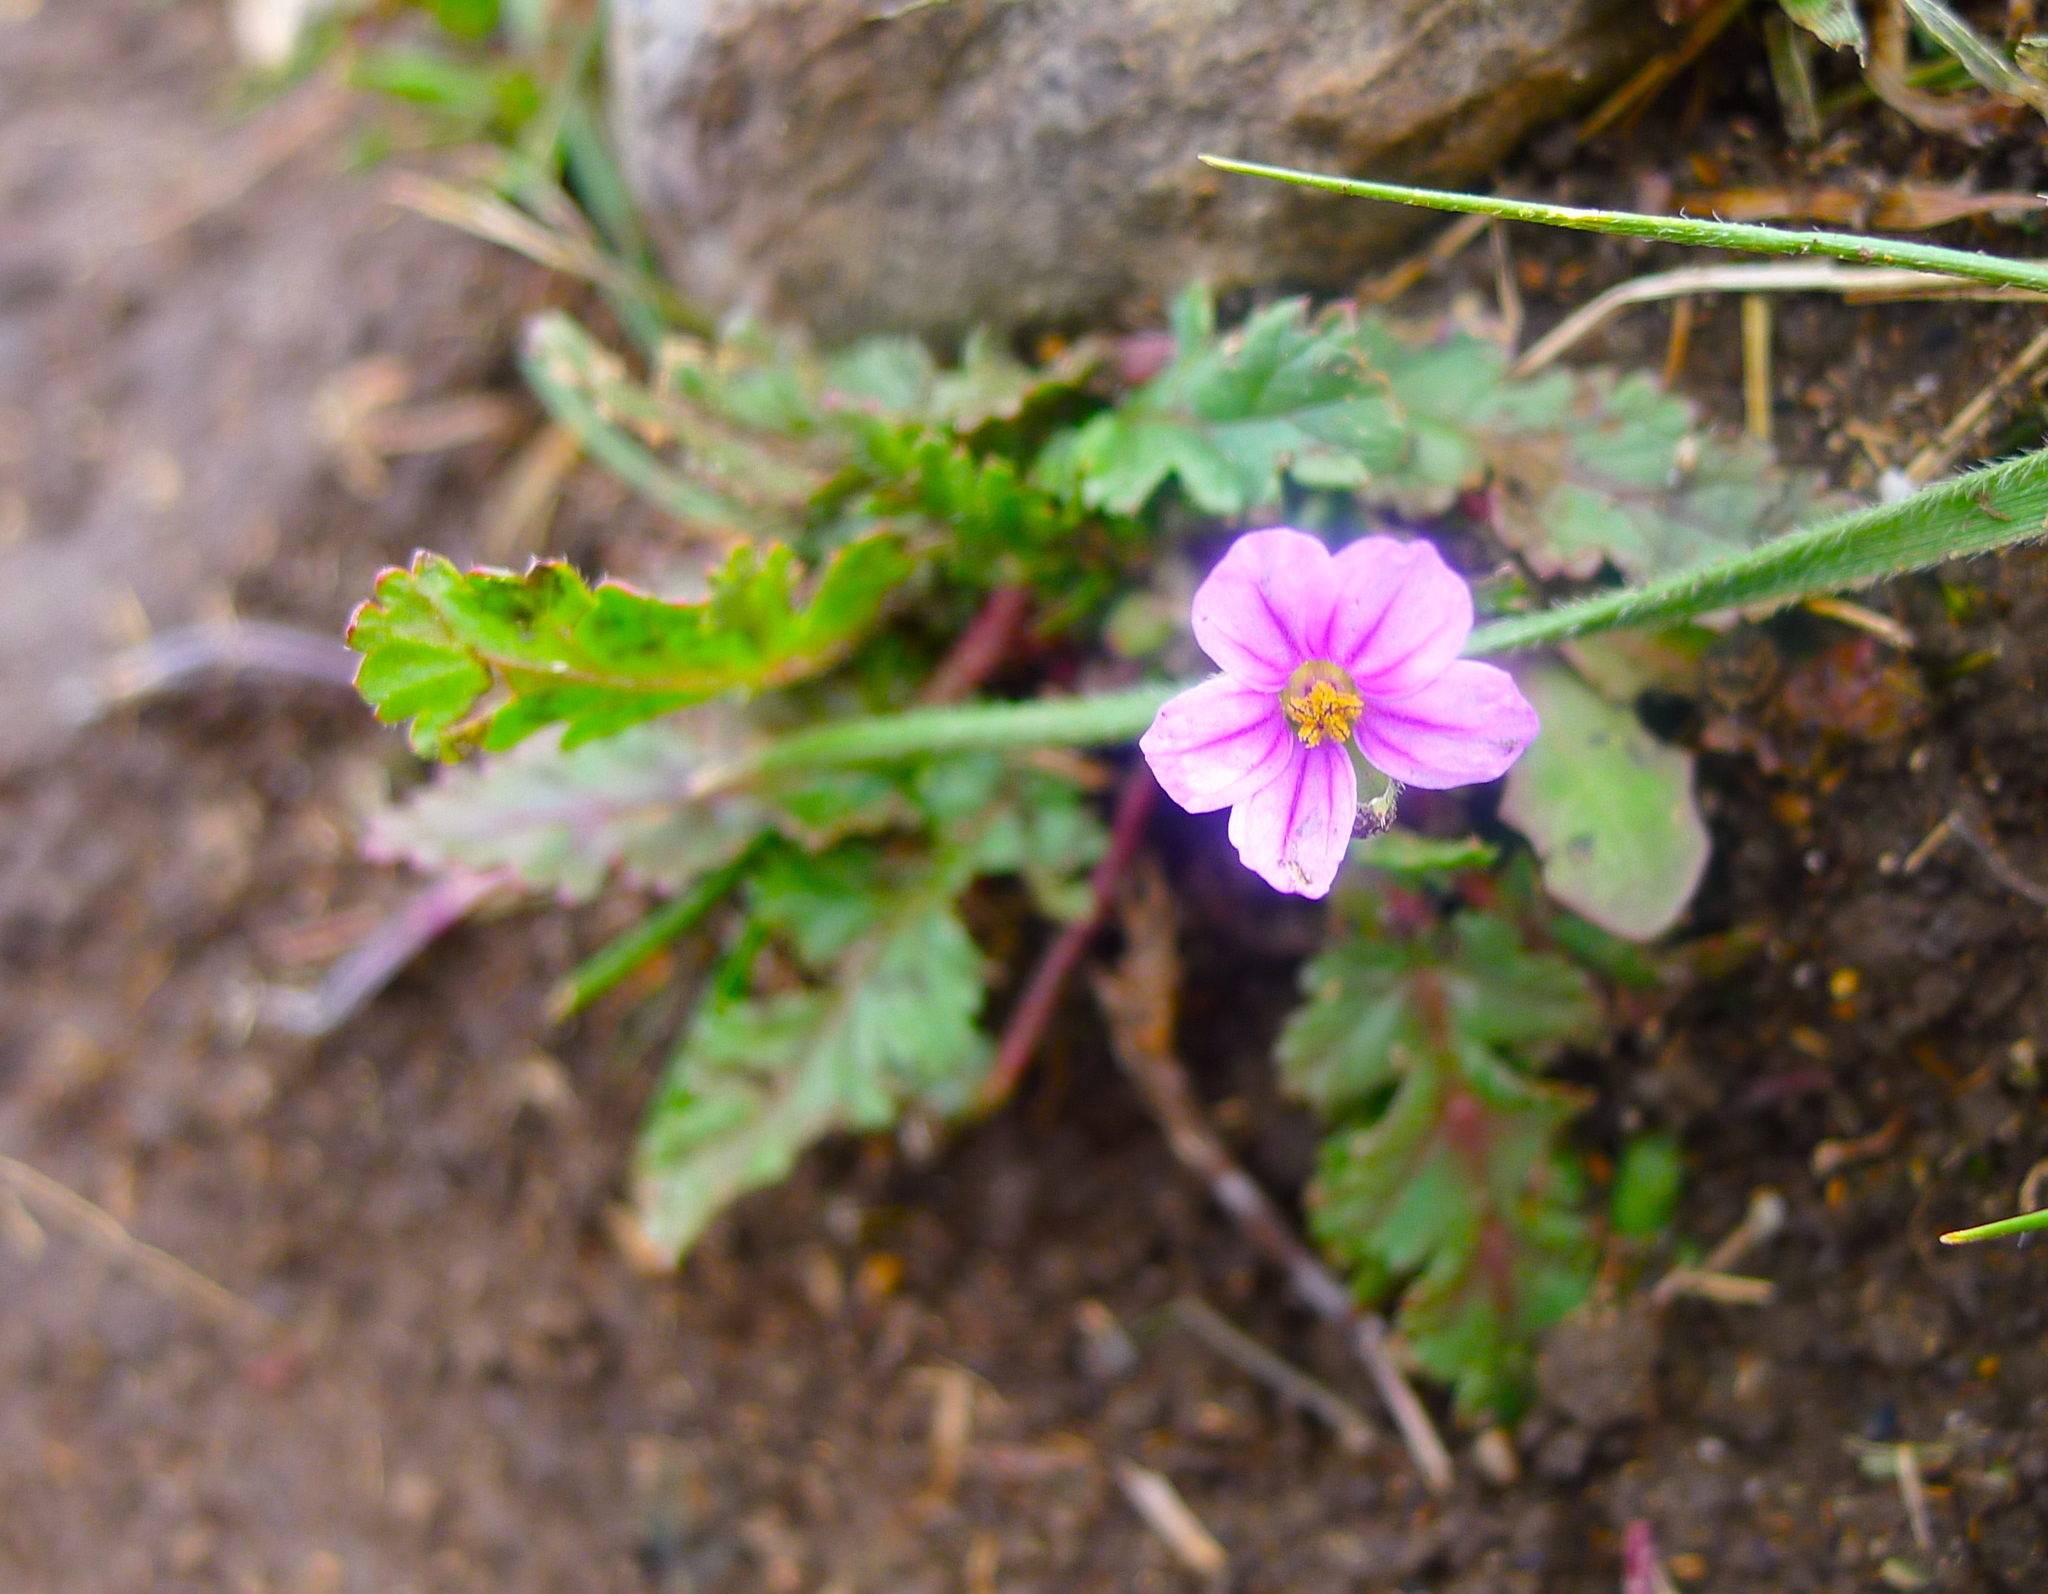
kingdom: Plantae
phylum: Tracheophyta
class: Magnoliopsida
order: Geraniales
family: Geraniaceae
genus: Erodium
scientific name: Erodium botrys
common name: Mediterranean stork's-bill
